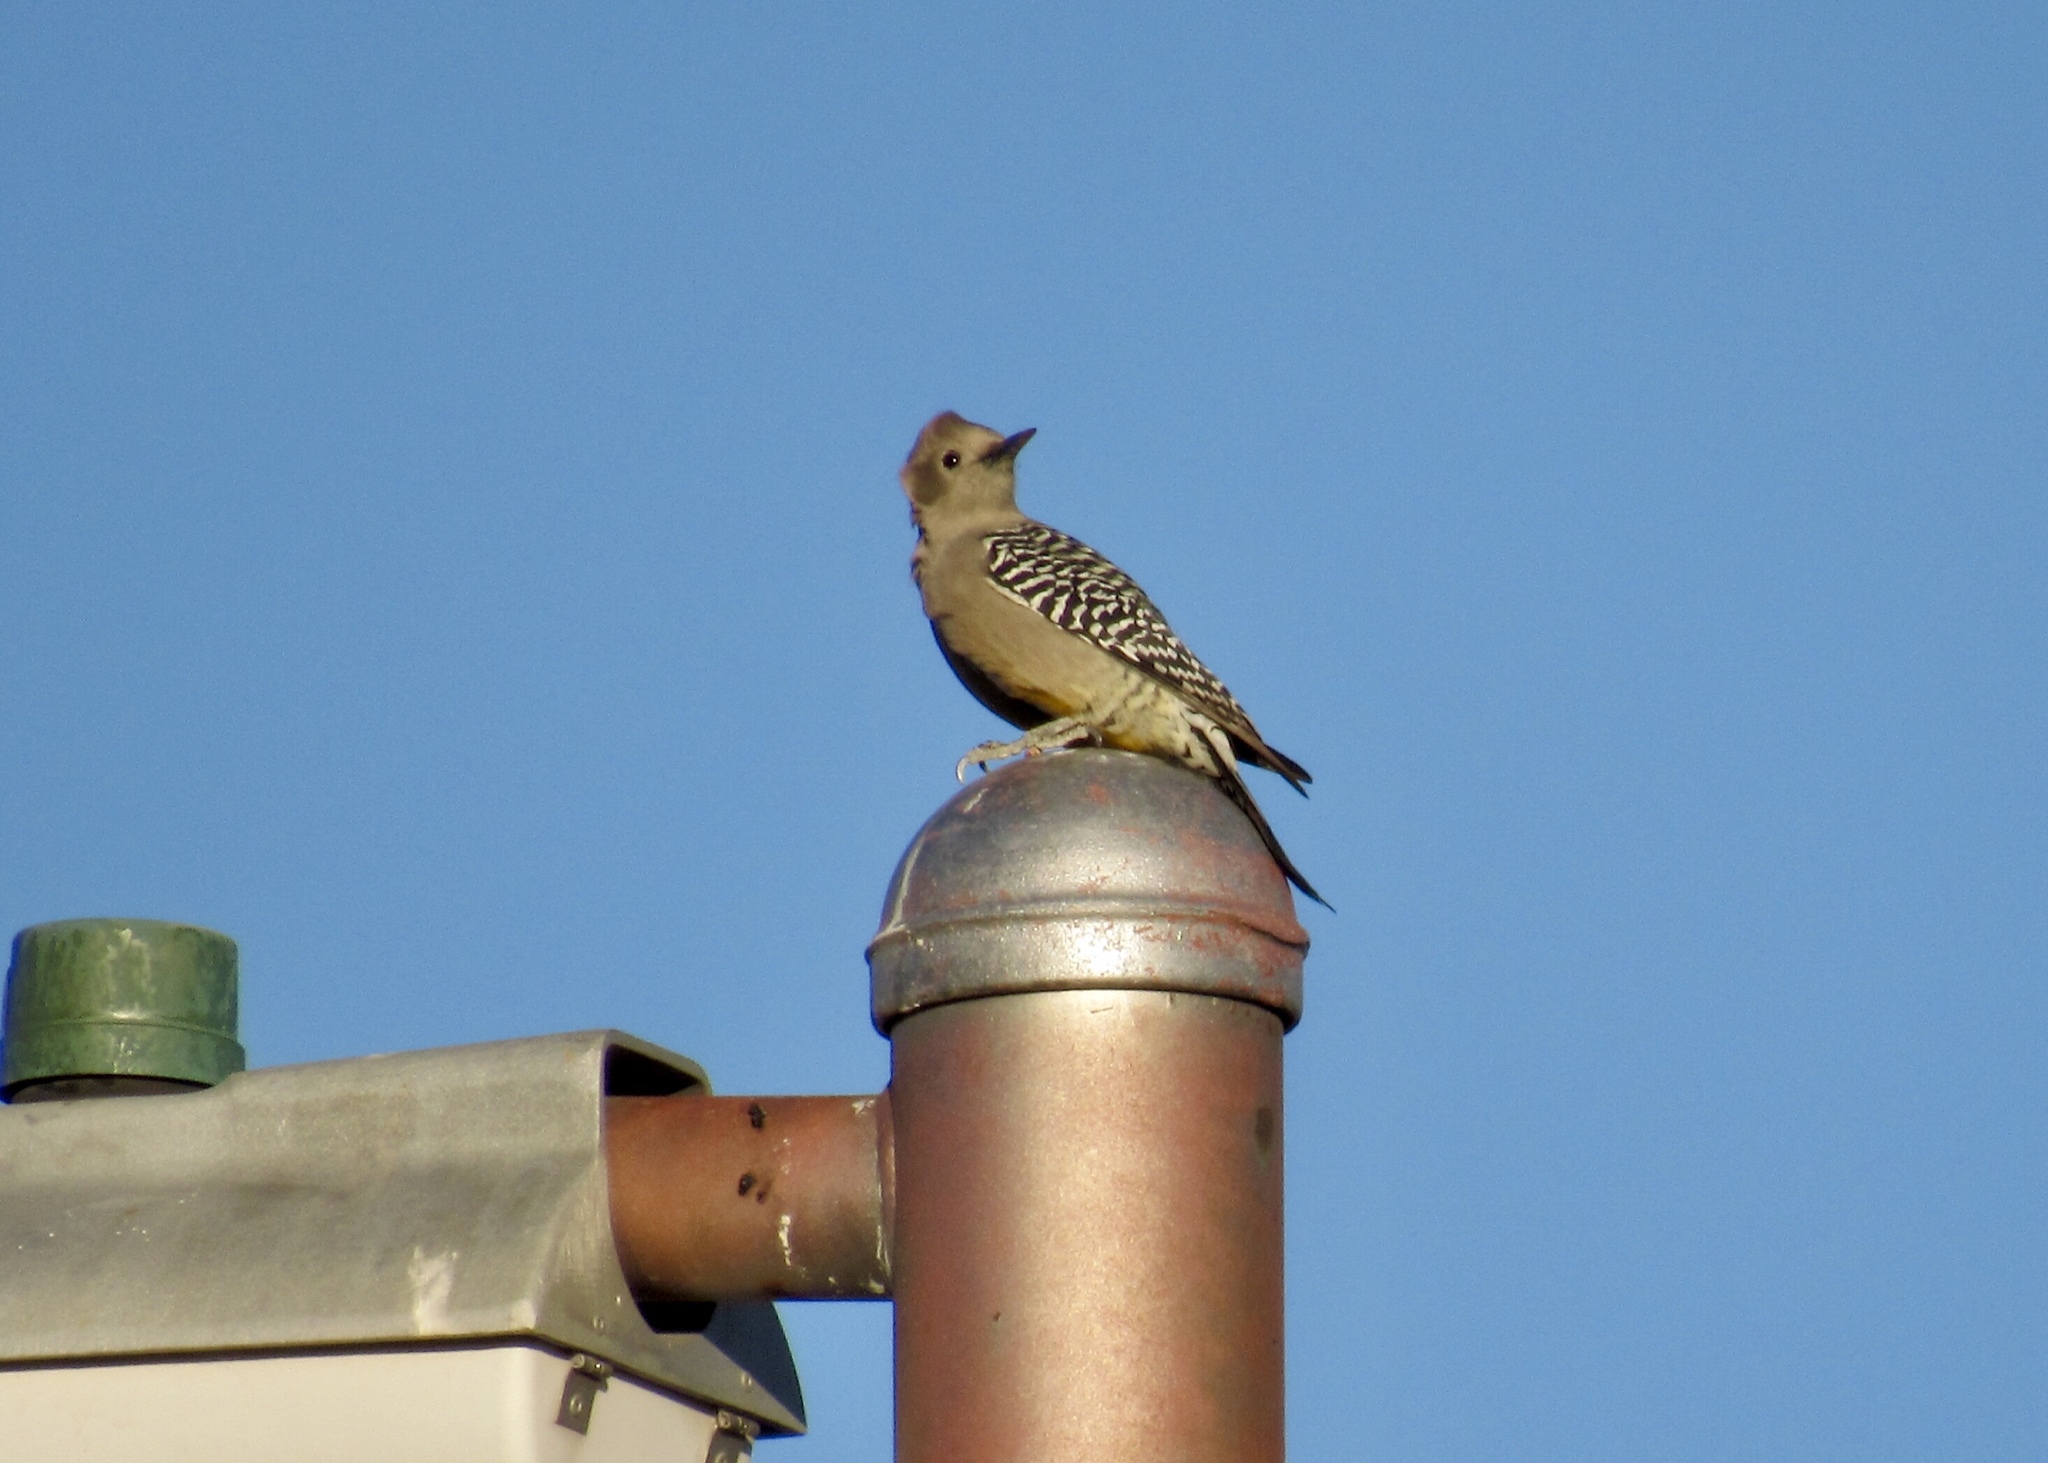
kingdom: Animalia
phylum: Chordata
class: Aves
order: Piciformes
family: Picidae
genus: Melanerpes
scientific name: Melanerpes uropygialis
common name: Gila woodpecker
